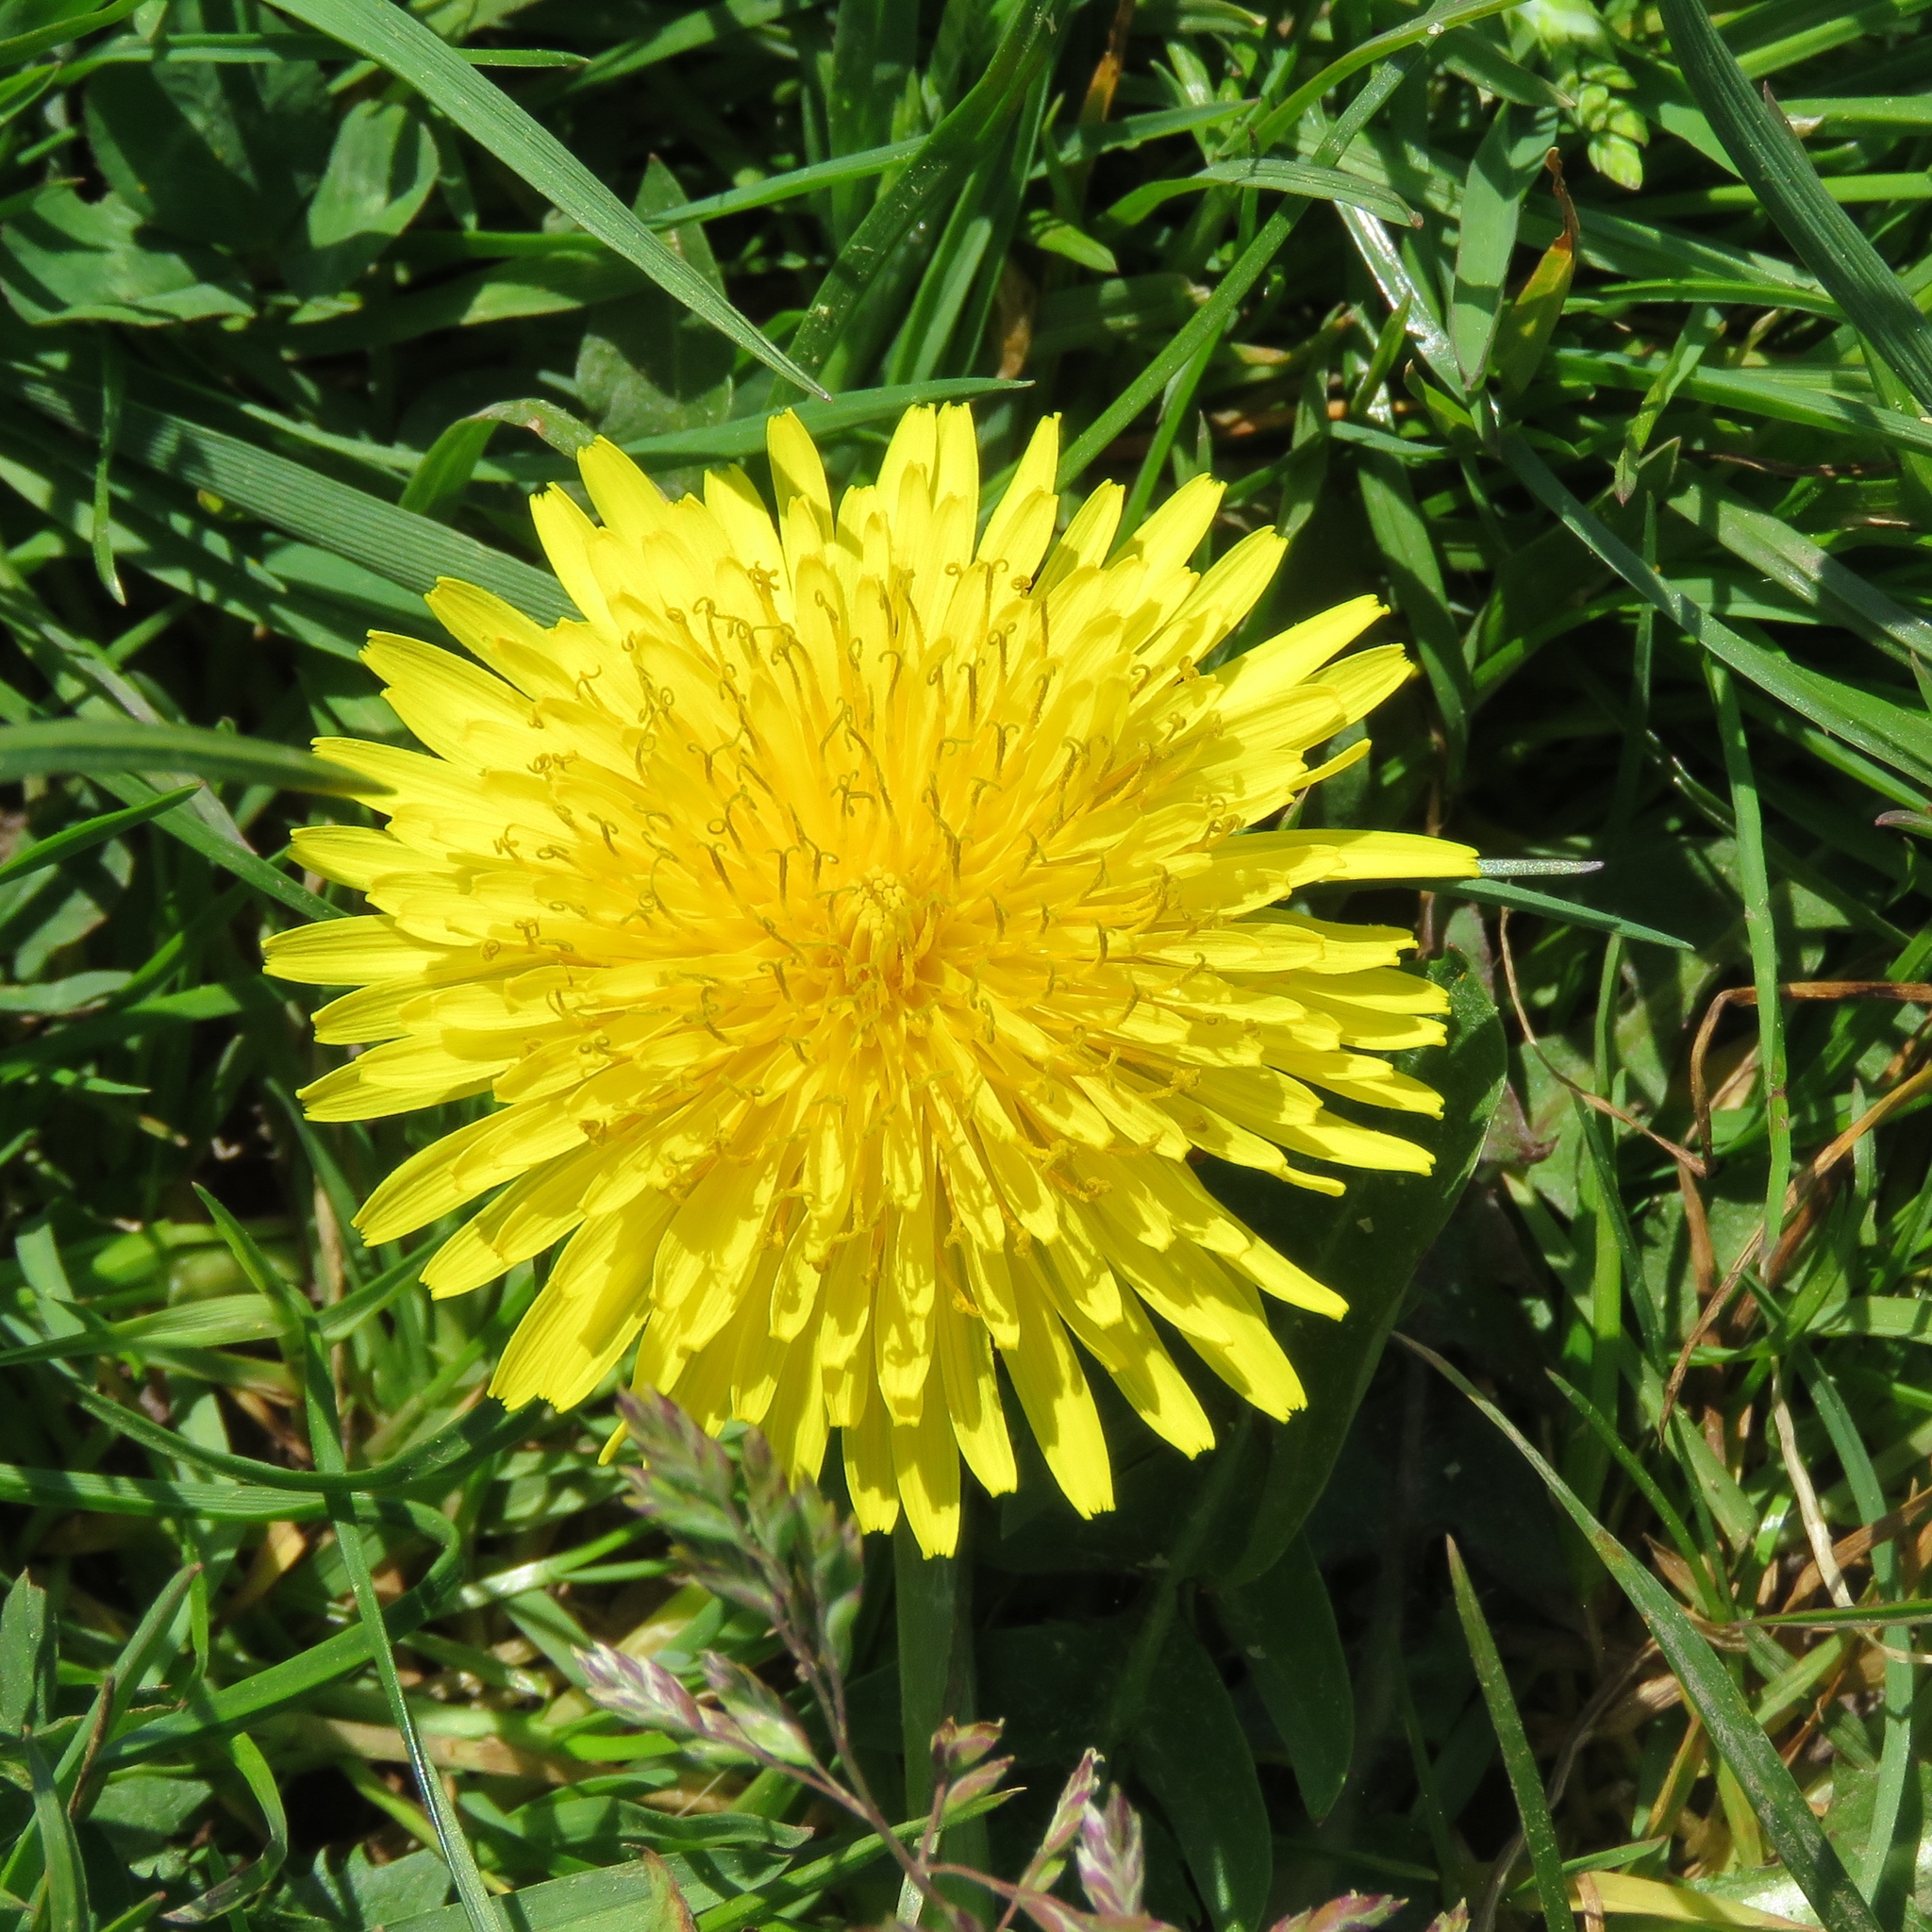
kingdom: Plantae
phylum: Tracheophyta
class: Magnoliopsida
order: Asterales
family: Asteraceae
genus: Taraxacum
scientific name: Taraxacum officinale
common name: Common dandelion
